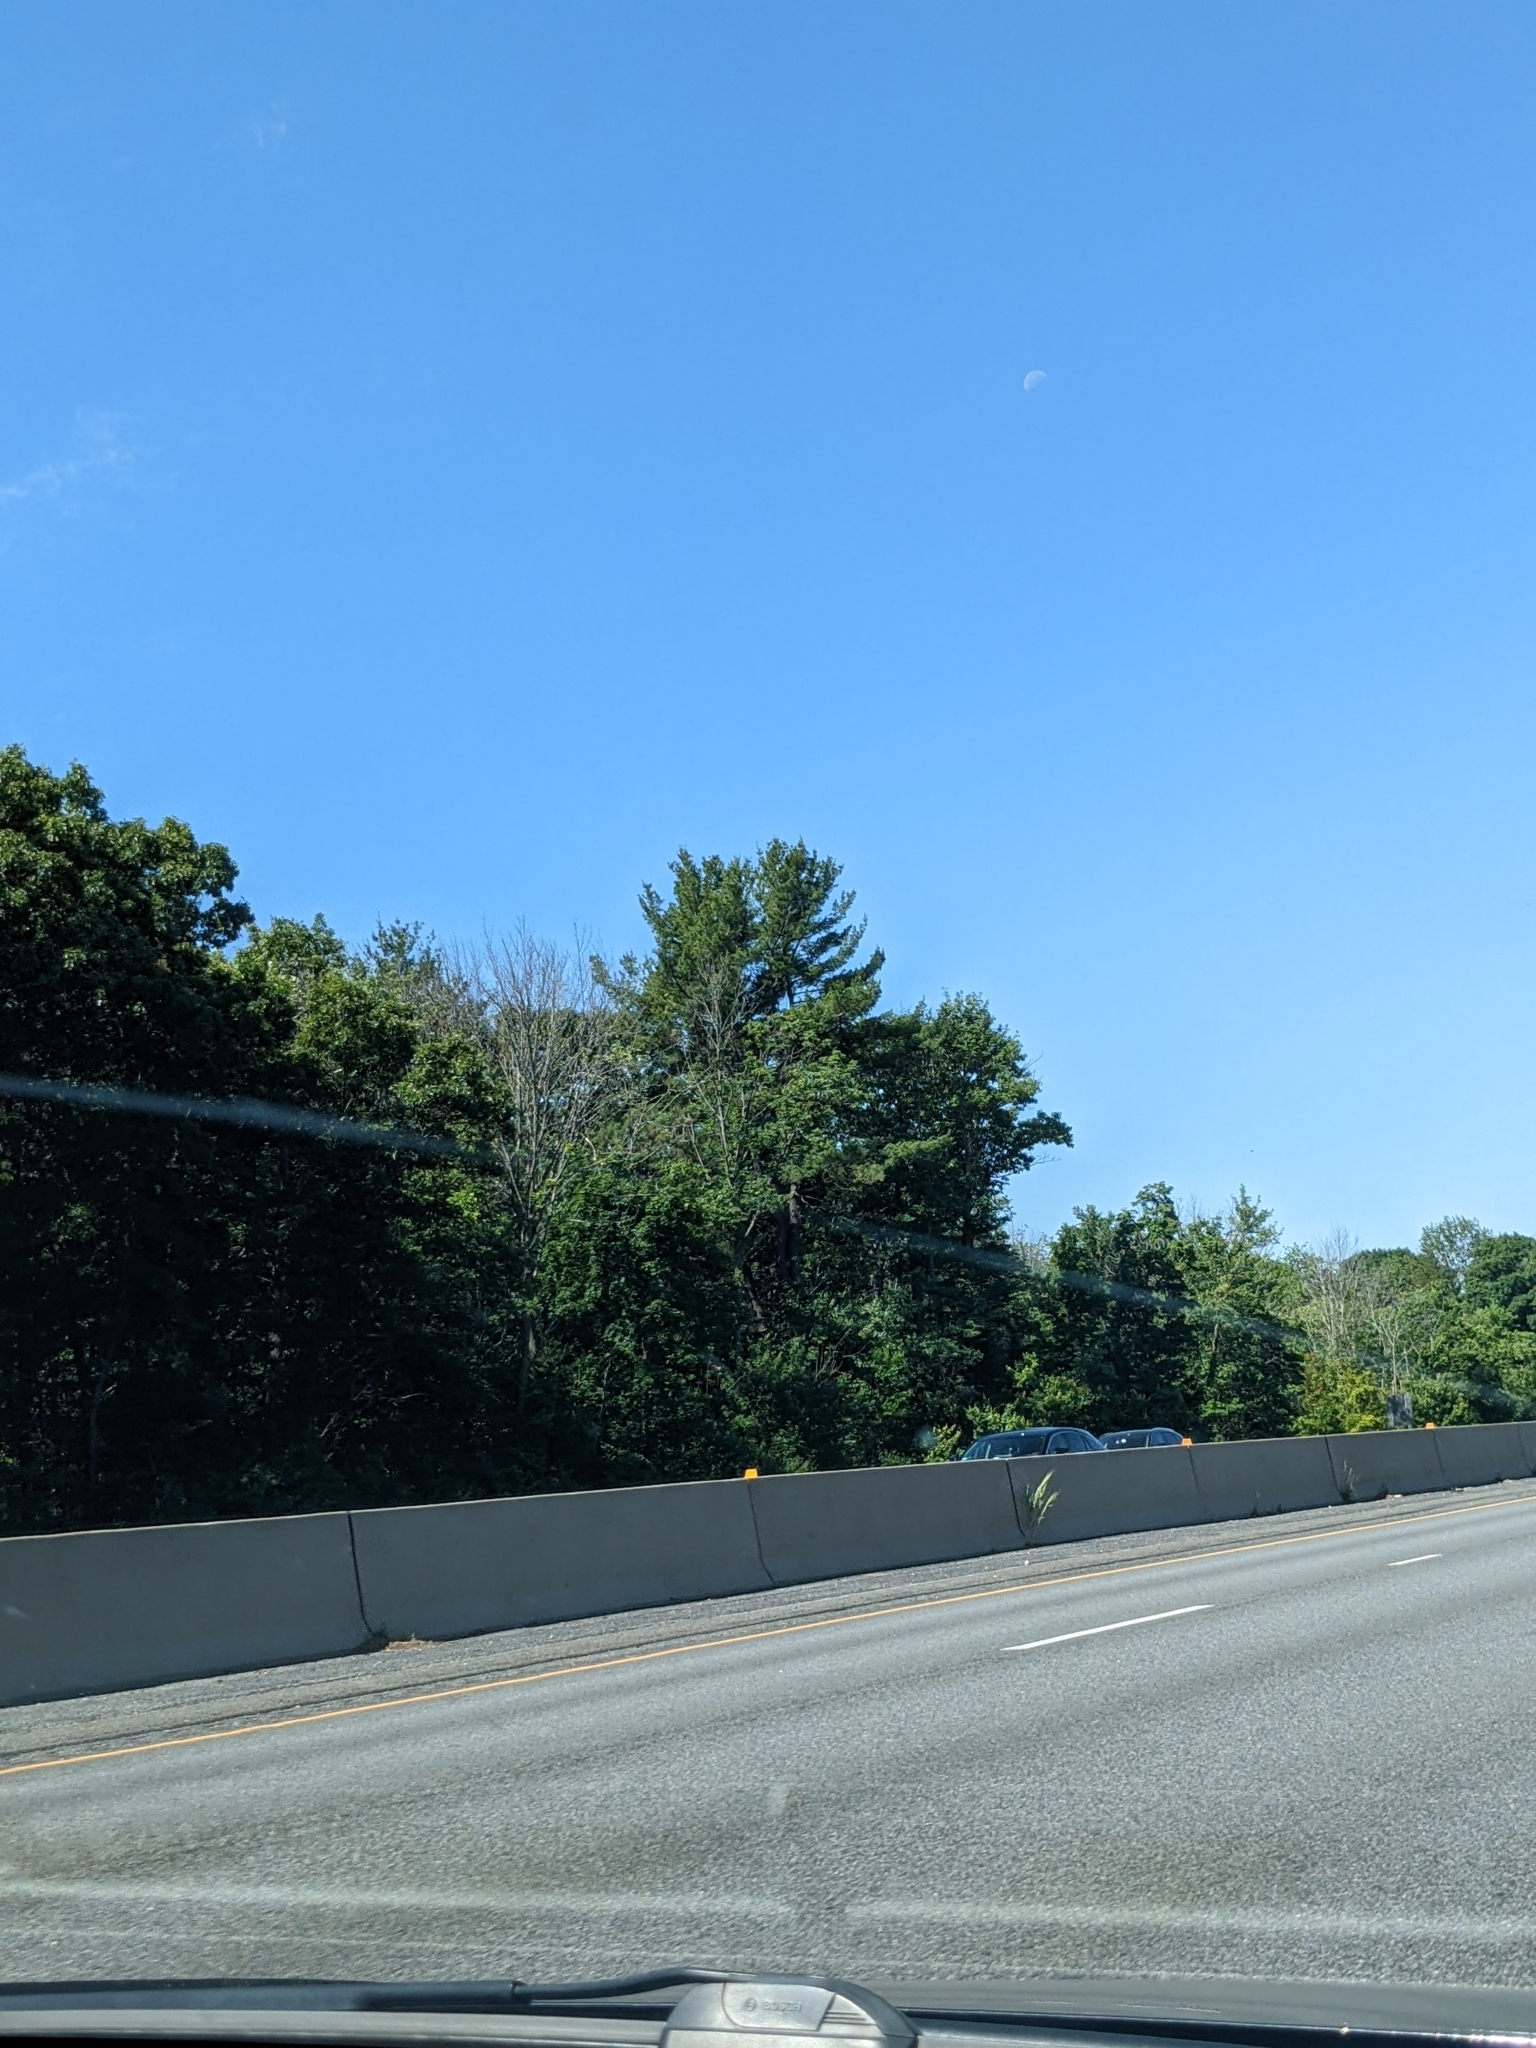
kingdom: Plantae
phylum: Tracheophyta
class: Pinopsida
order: Pinales
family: Pinaceae
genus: Pinus
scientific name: Pinus strobus
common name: Weymouth pine
